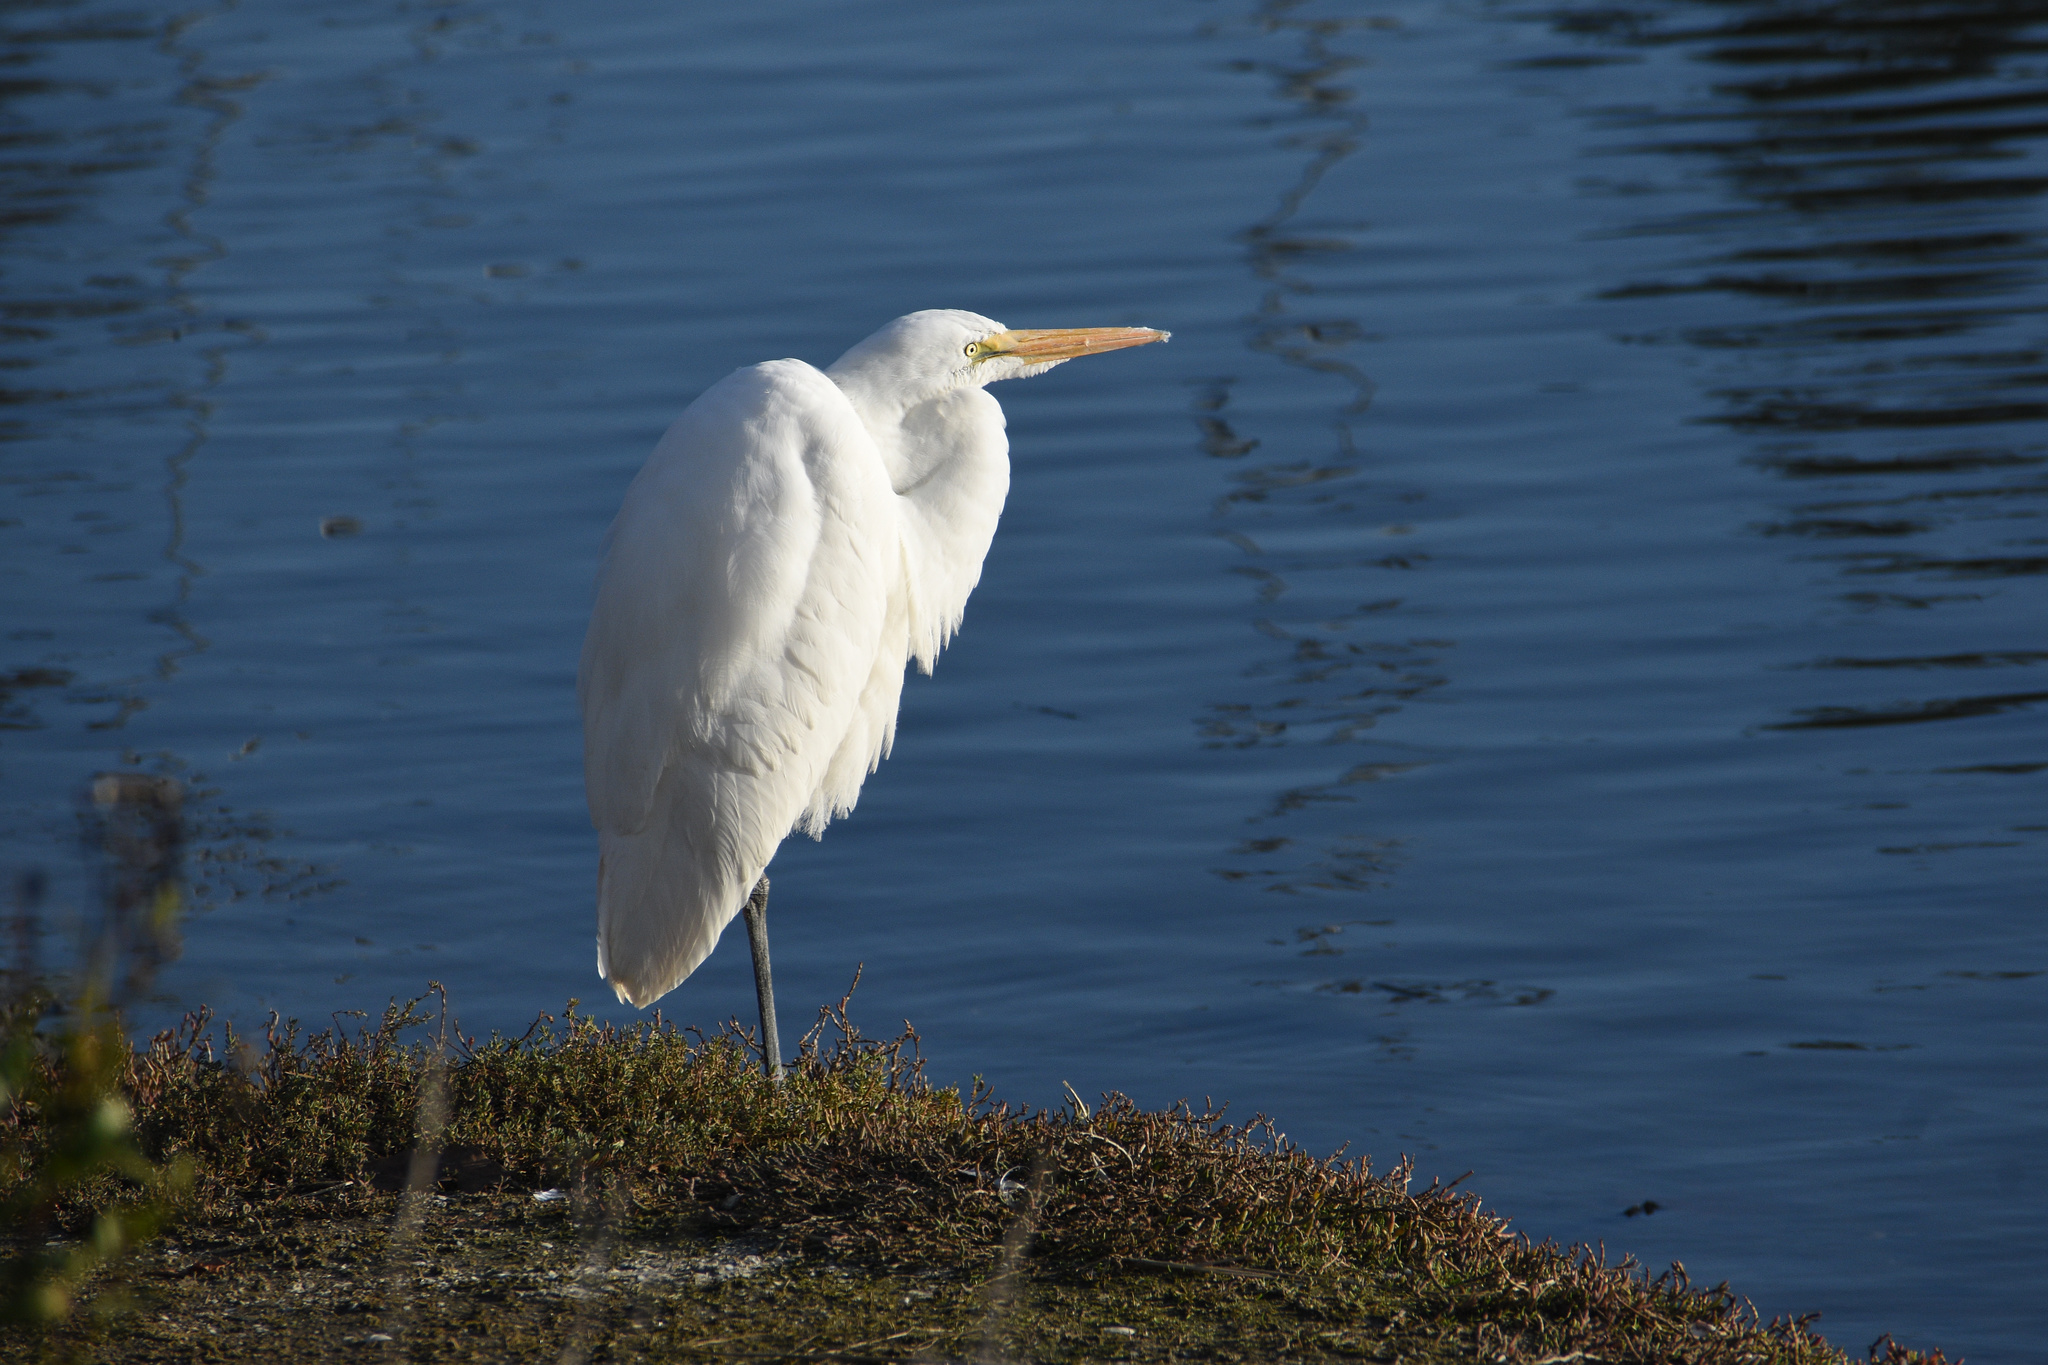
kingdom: Animalia
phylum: Chordata
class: Aves
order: Pelecaniformes
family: Ardeidae
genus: Ardea
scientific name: Ardea alba
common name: Great egret
